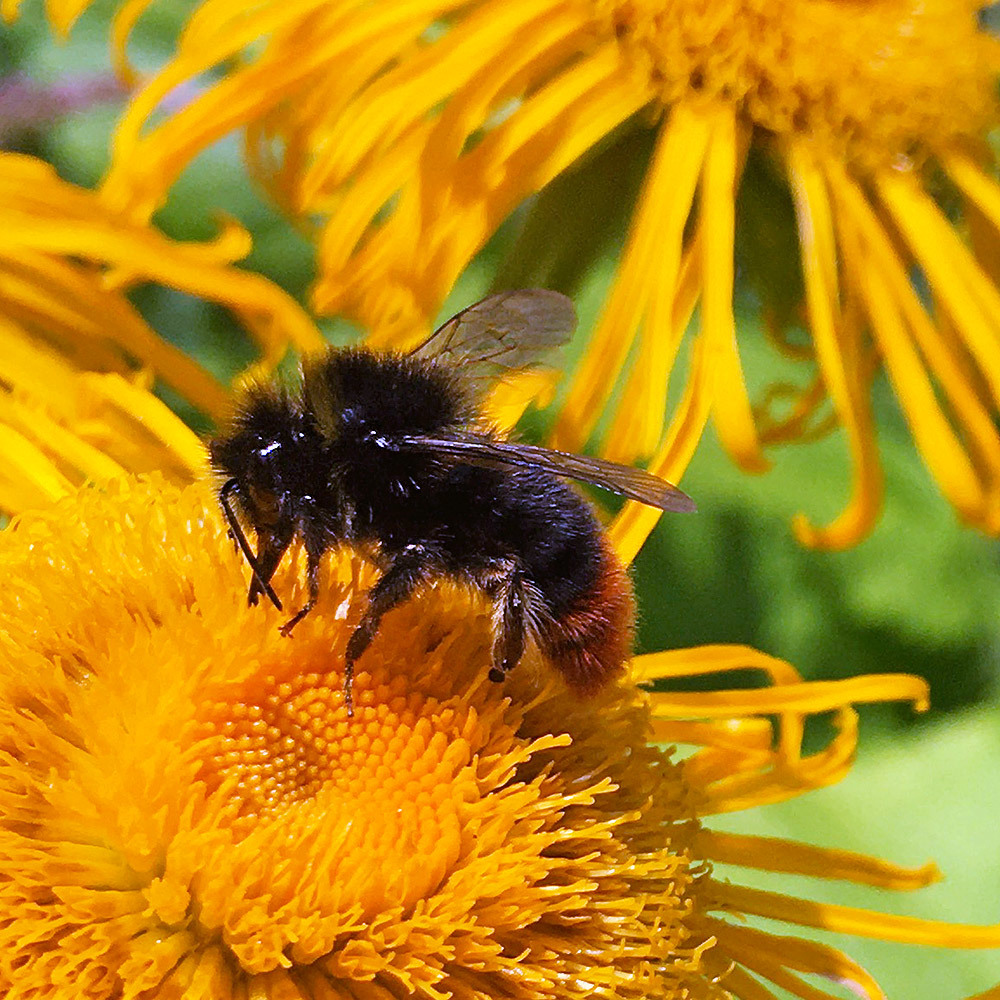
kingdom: Animalia
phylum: Arthropoda
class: Insecta
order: Hymenoptera
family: Apidae
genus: Bombus
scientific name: Bombus lapidarius
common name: Large red-tailed humble-bee
